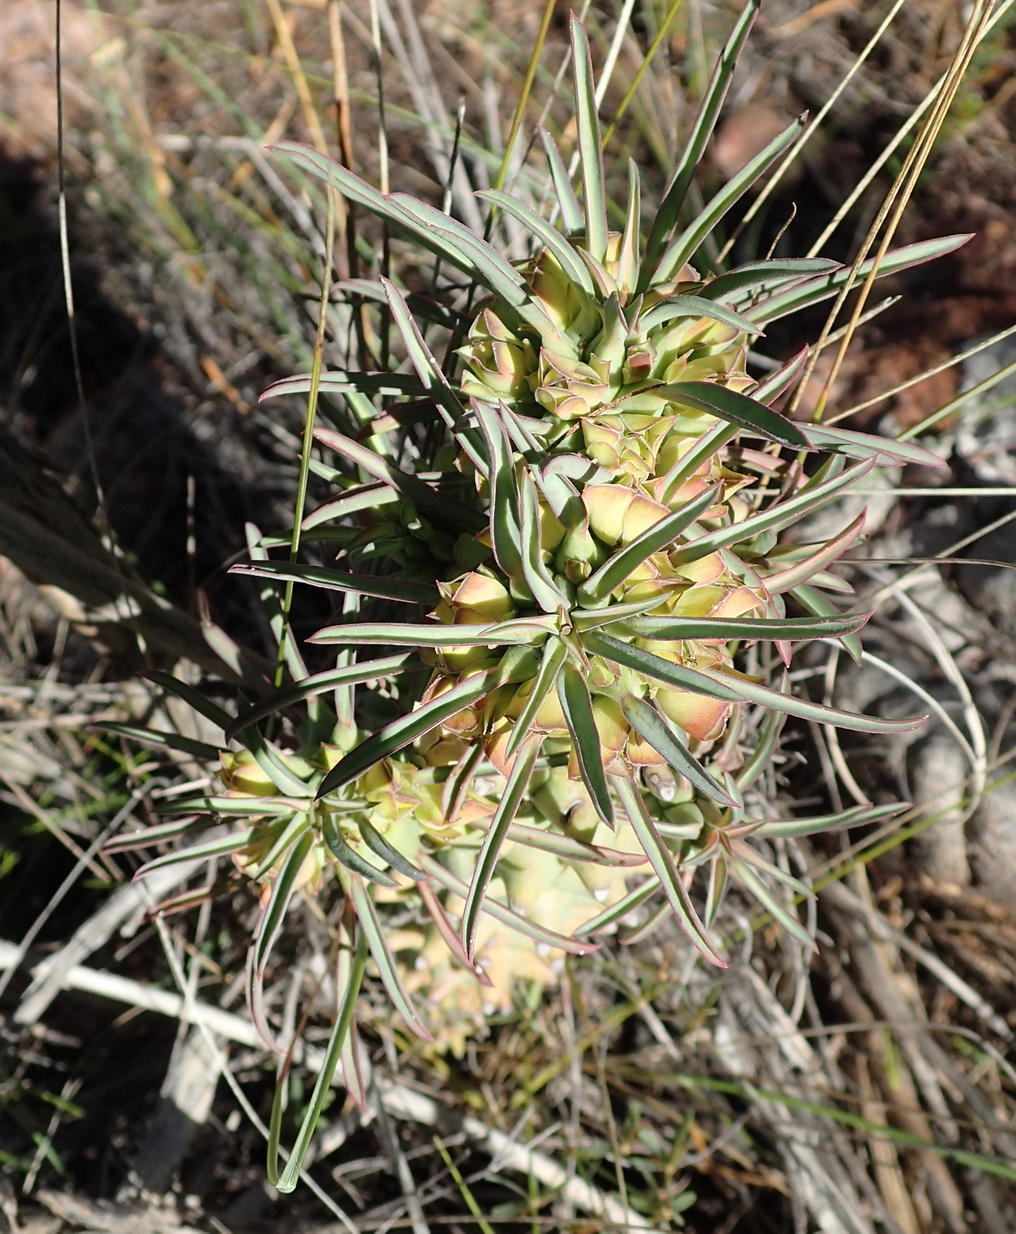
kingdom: Plantae
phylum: Tracheophyta
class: Magnoliopsida
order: Malpighiales
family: Euphorbiaceae
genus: Euphorbia
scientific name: Euphorbia clandestina
